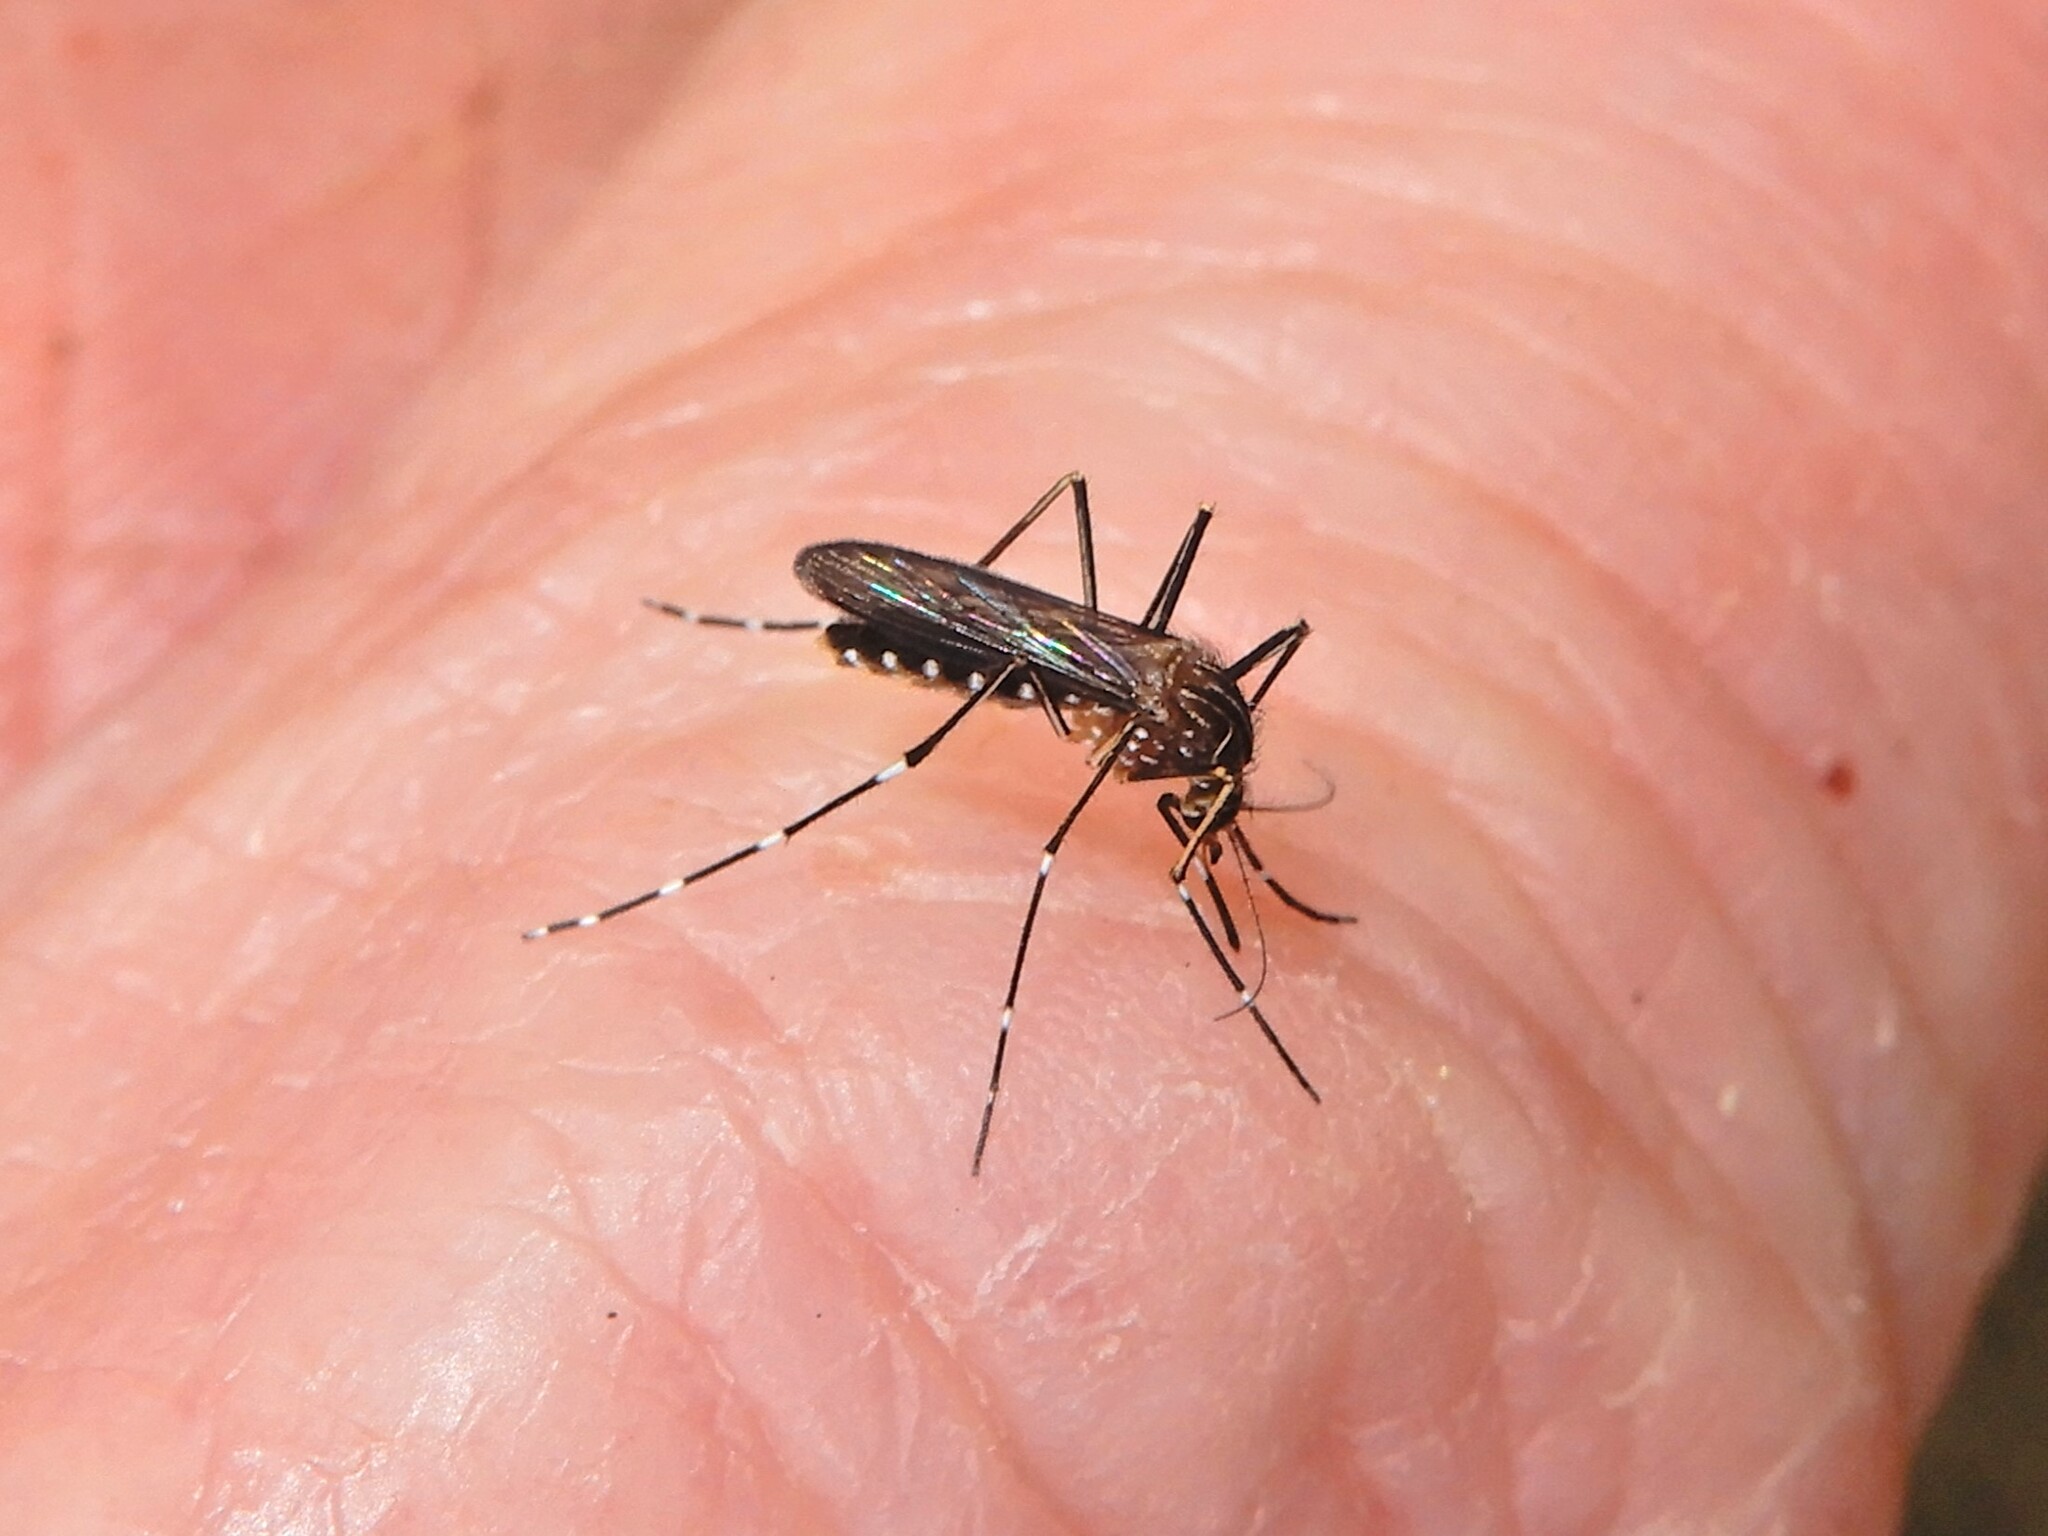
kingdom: Animalia
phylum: Arthropoda
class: Insecta
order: Diptera
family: Culicidae
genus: Aedes
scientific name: Aedes notoscriptus
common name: Australian backyard mosquito
